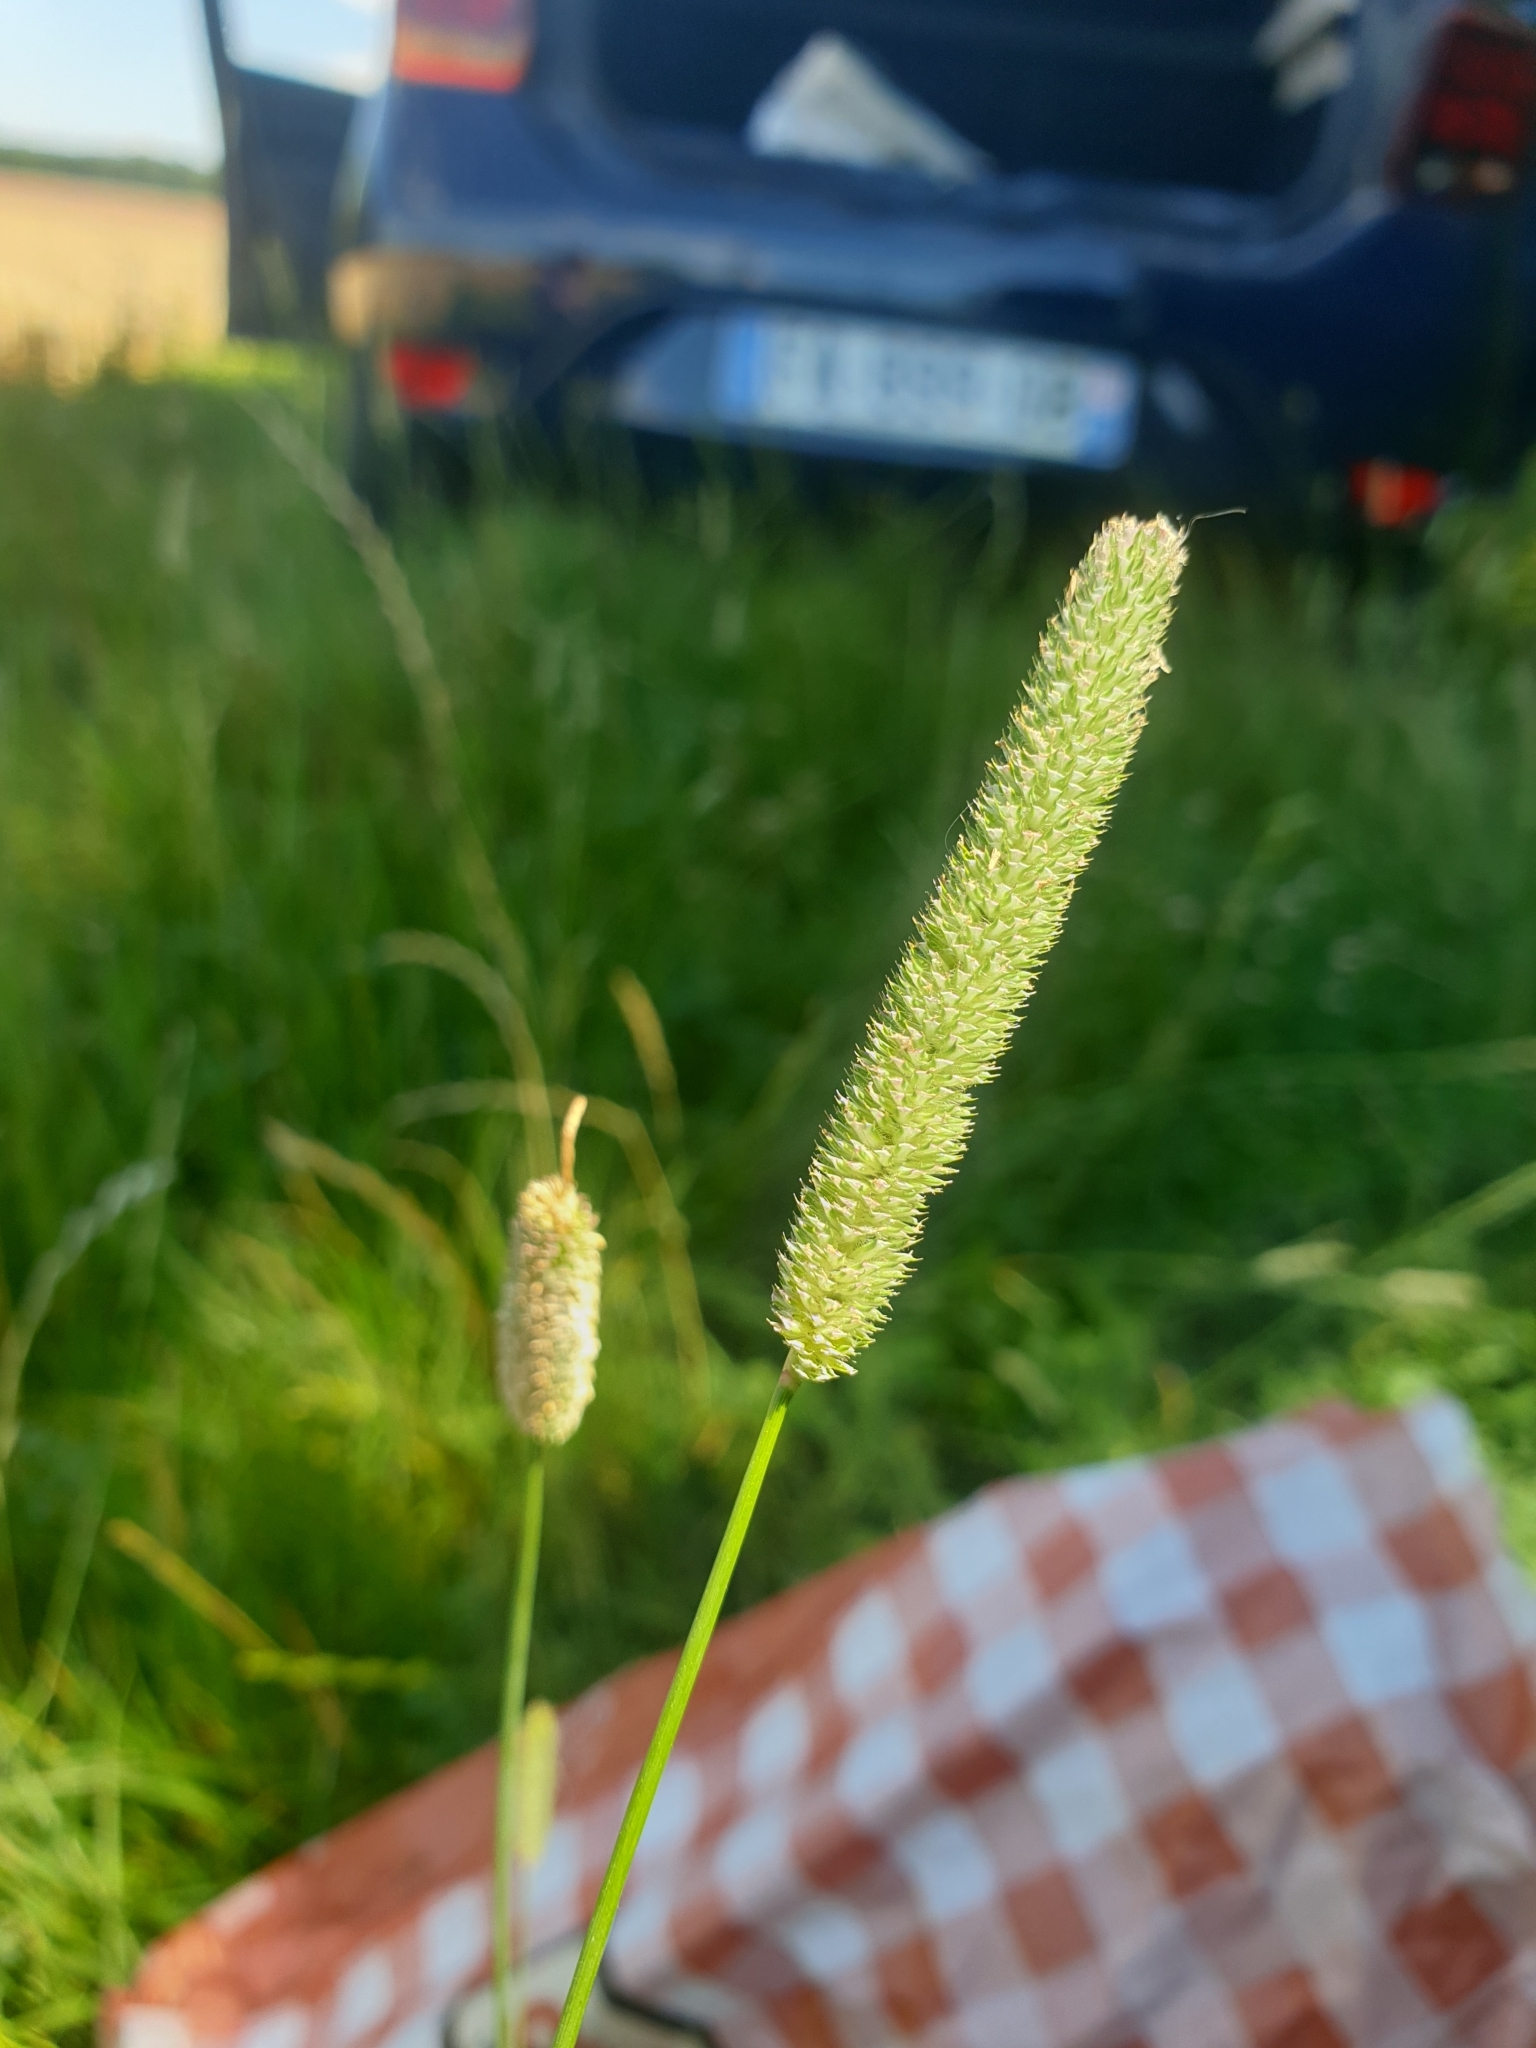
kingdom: Plantae
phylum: Tracheophyta
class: Liliopsida
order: Poales
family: Poaceae
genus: Phleum
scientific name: Phleum pratense
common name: Timothy grass
